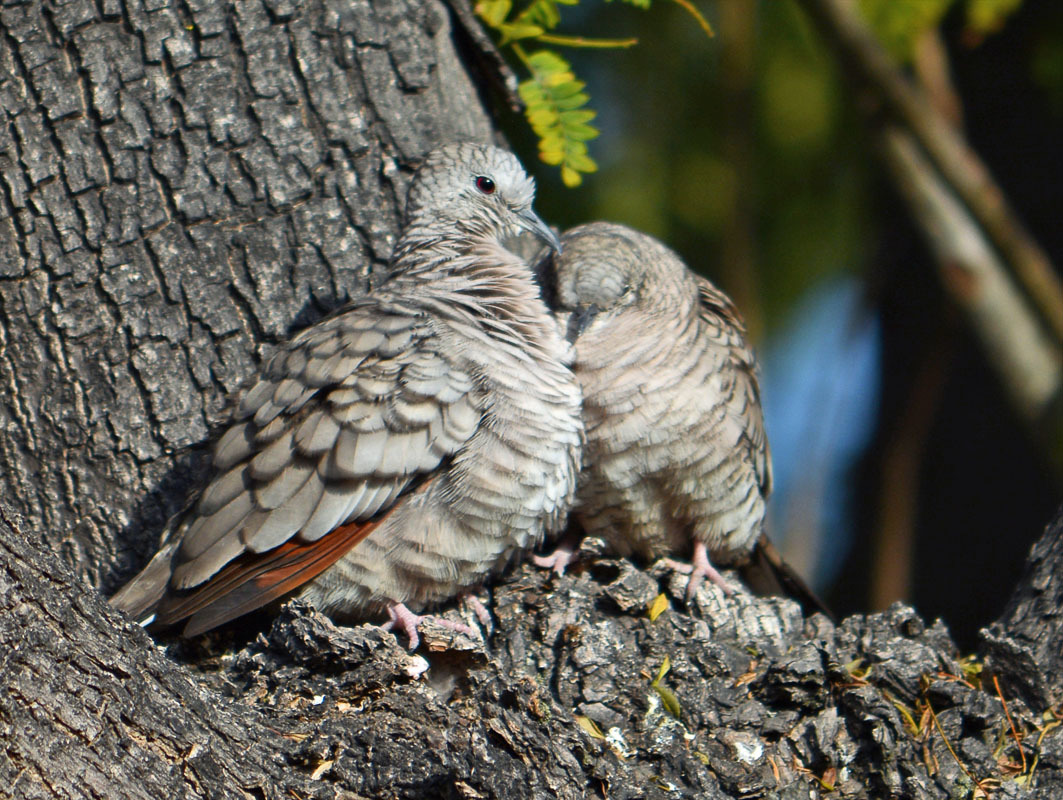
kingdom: Animalia
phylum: Chordata
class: Aves
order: Columbiformes
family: Columbidae
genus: Columbina
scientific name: Columbina inca
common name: Inca dove
